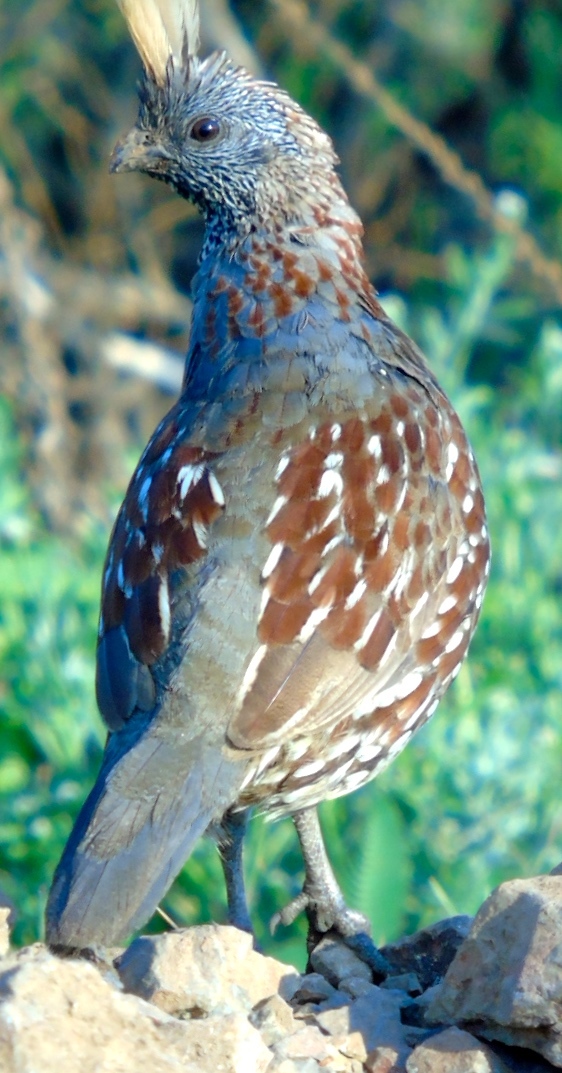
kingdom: Animalia
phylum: Chordata
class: Aves
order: Galliformes
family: Odontophoridae
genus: Callipepla
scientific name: Callipepla douglasii
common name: Elegant quail
